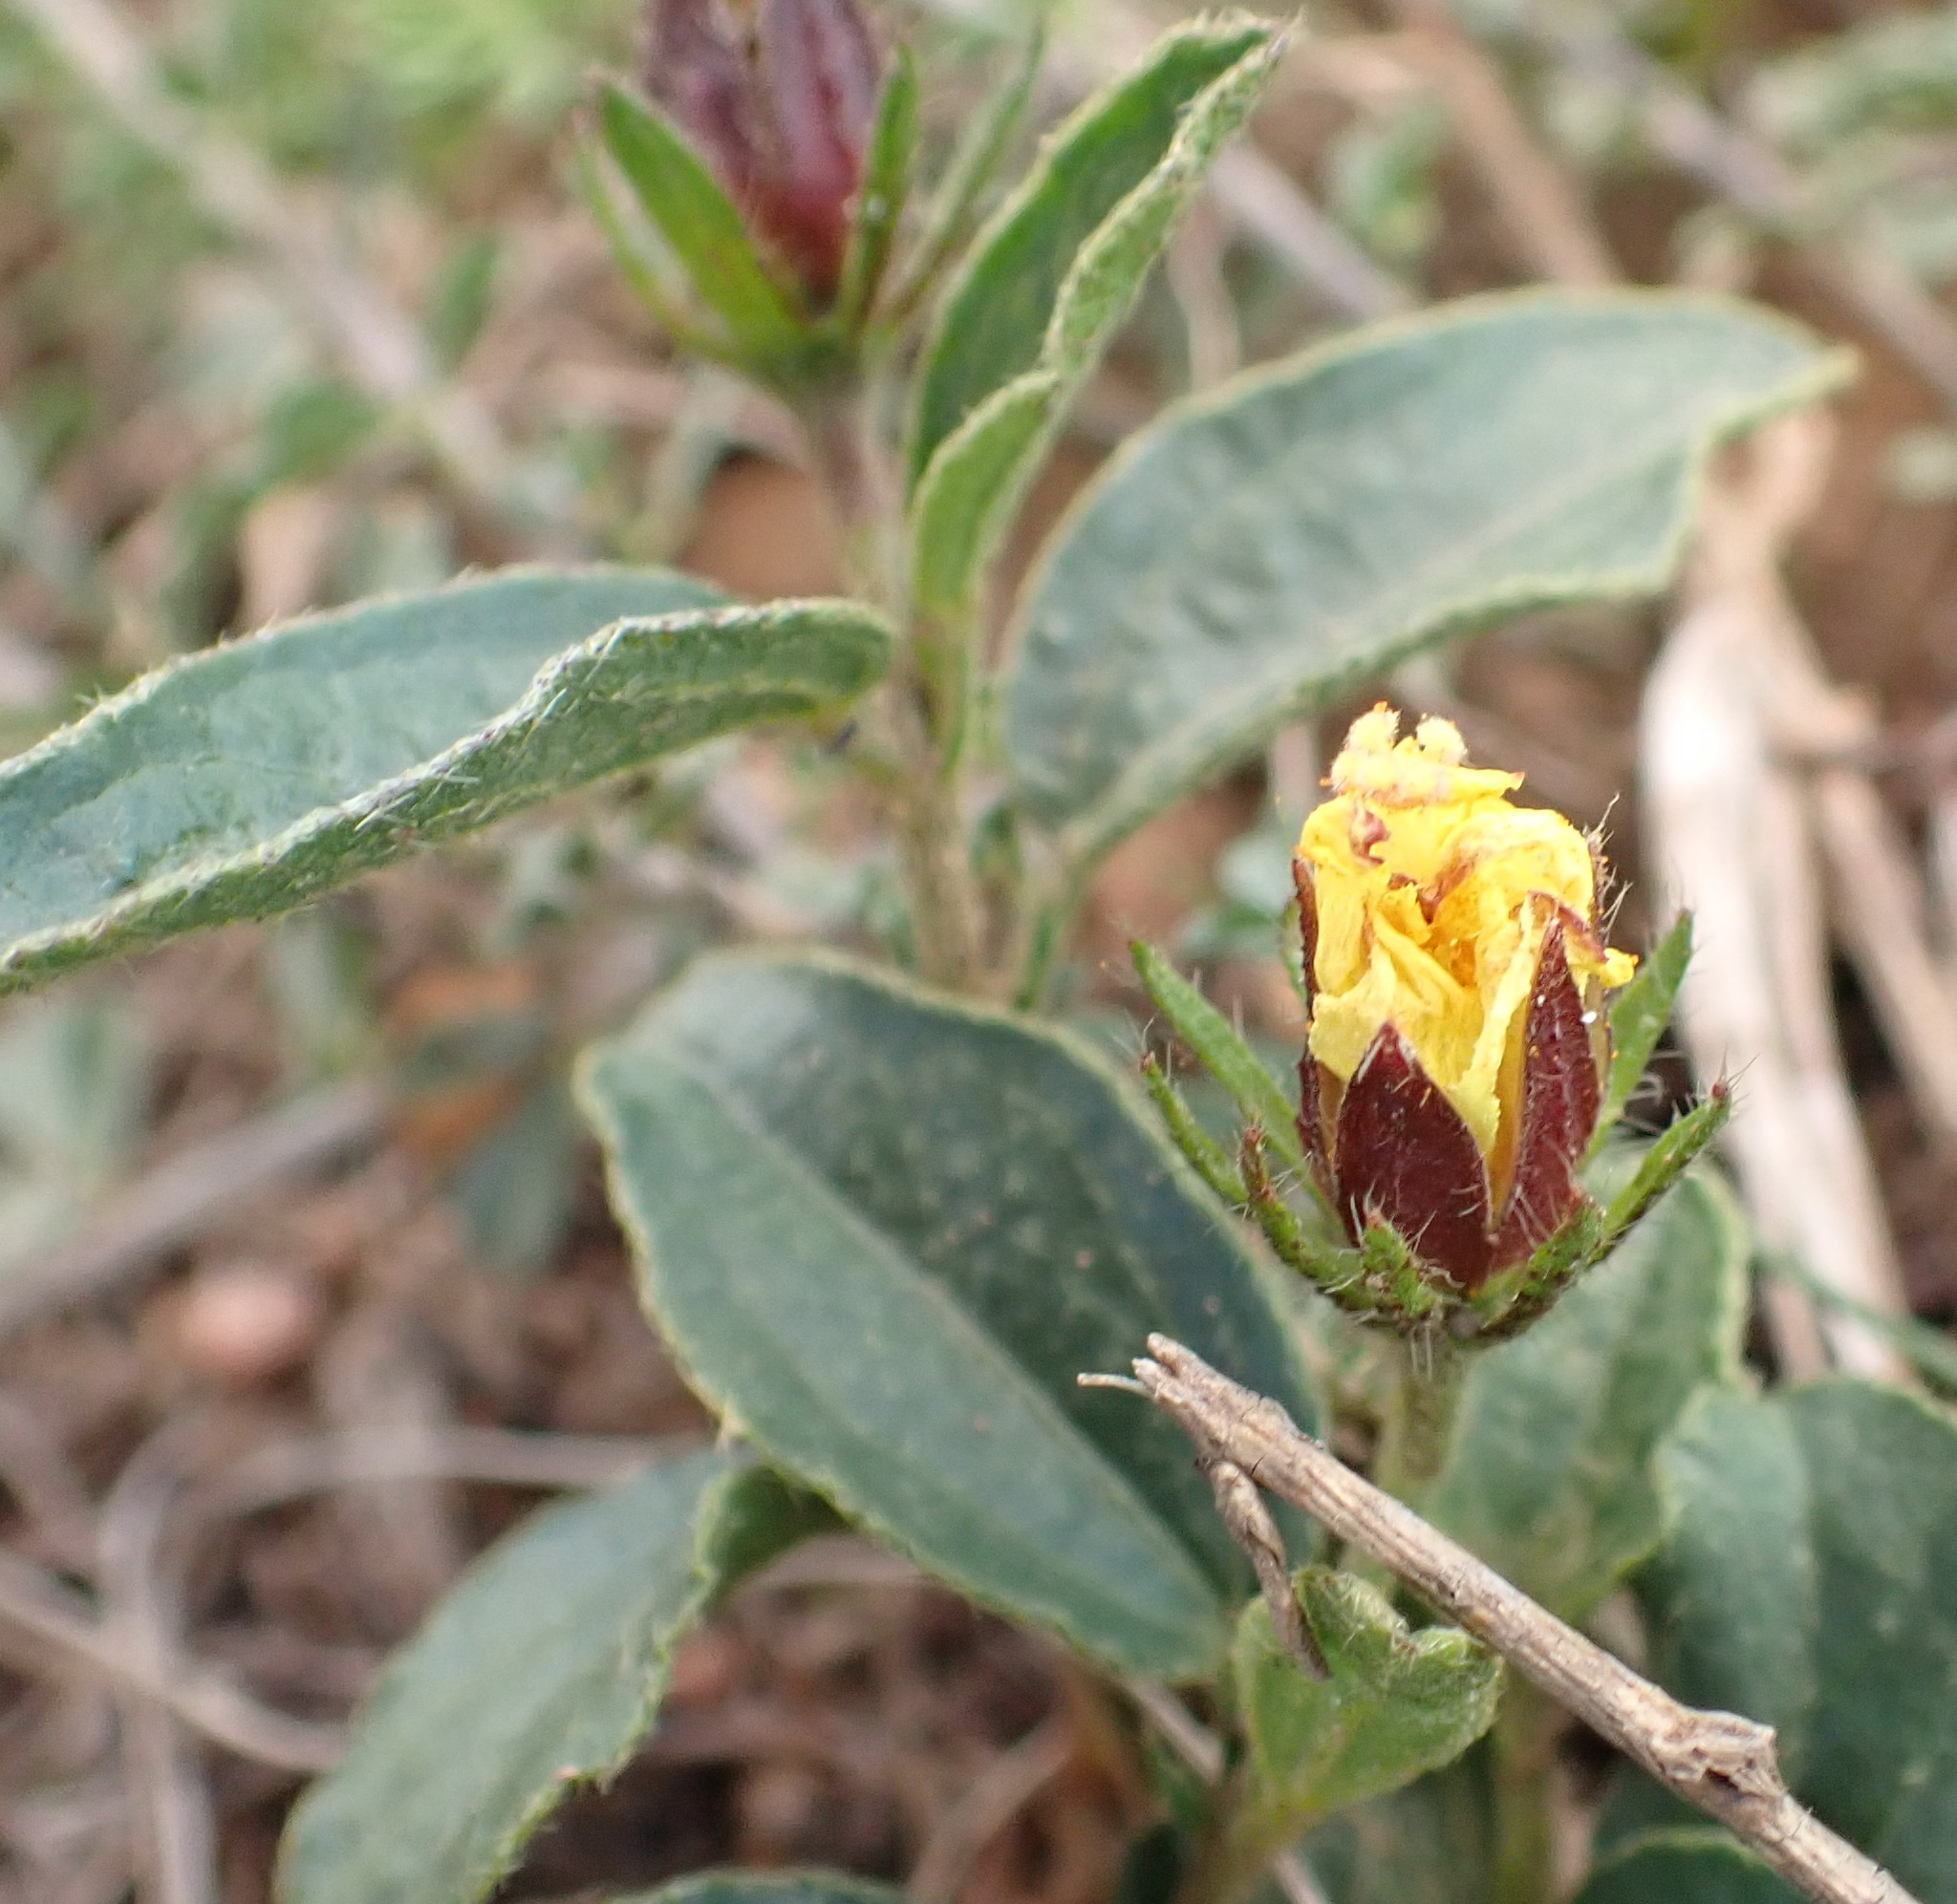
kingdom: Plantae
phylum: Tracheophyta
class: Magnoliopsida
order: Malvales
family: Malvaceae
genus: Hibiscus
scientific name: Hibiscus aethiopicus
